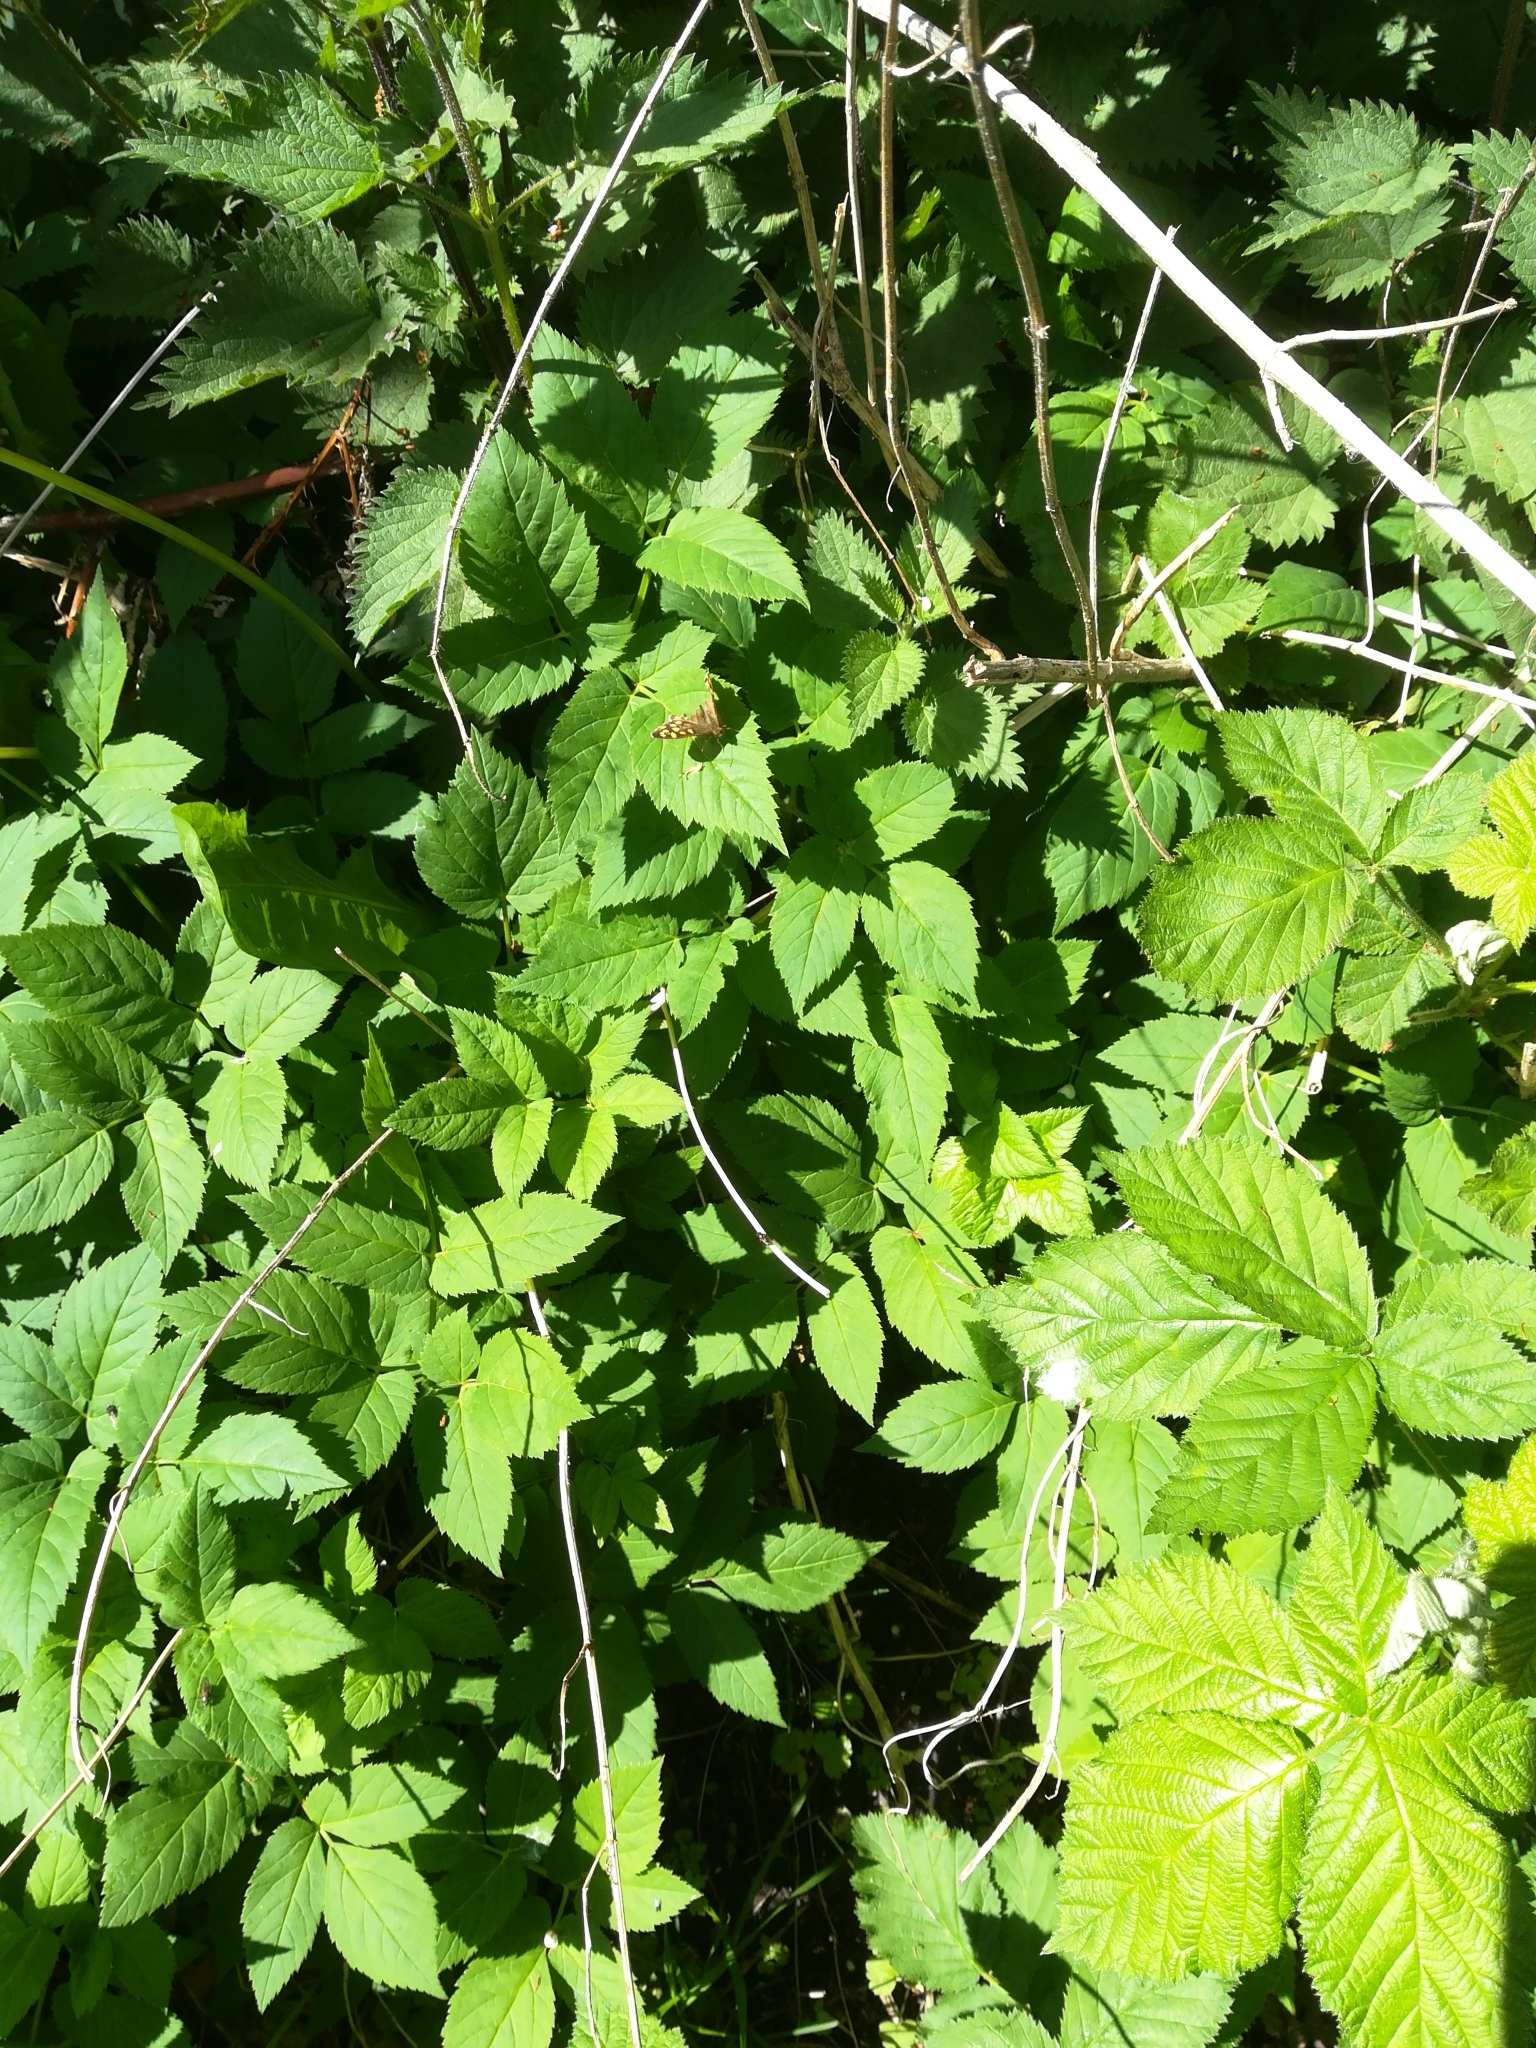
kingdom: Animalia
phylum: Arthropoda
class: Insecta
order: Lepidoptera
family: Nymphalidae
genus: Pararge
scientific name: Pararge aegeria
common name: Speckled wood
